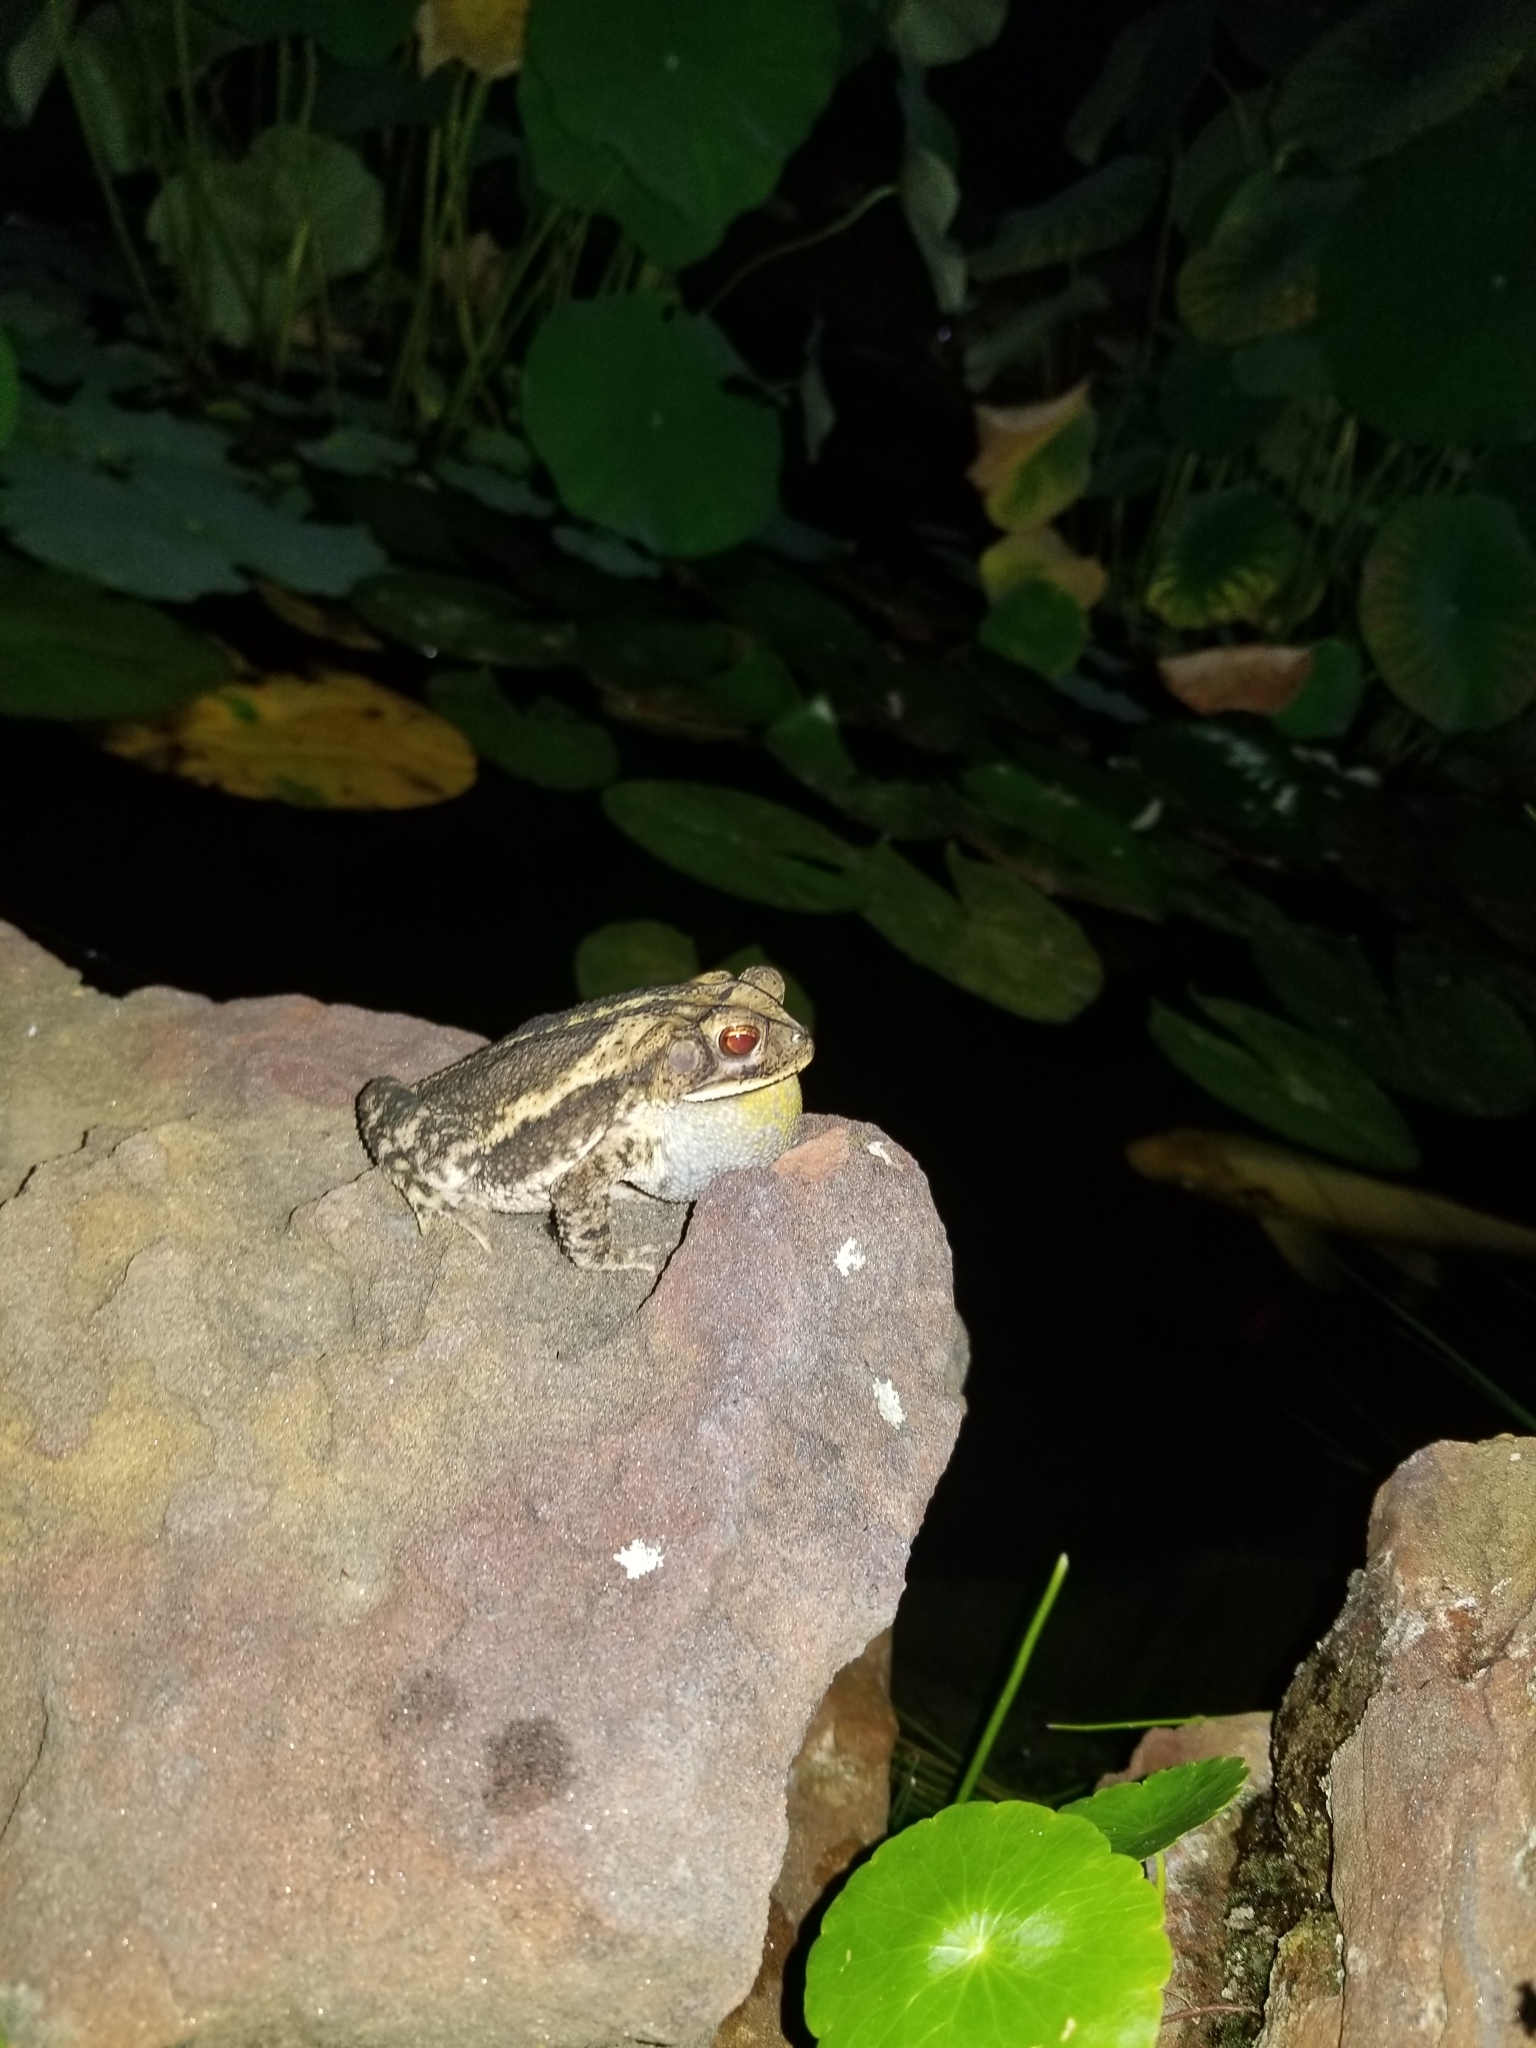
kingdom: Animalia
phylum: Chordata
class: Amphibia
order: Anura
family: Bufonidae
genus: Incilius
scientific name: Incilius nebulifer
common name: Gulf coast toad
